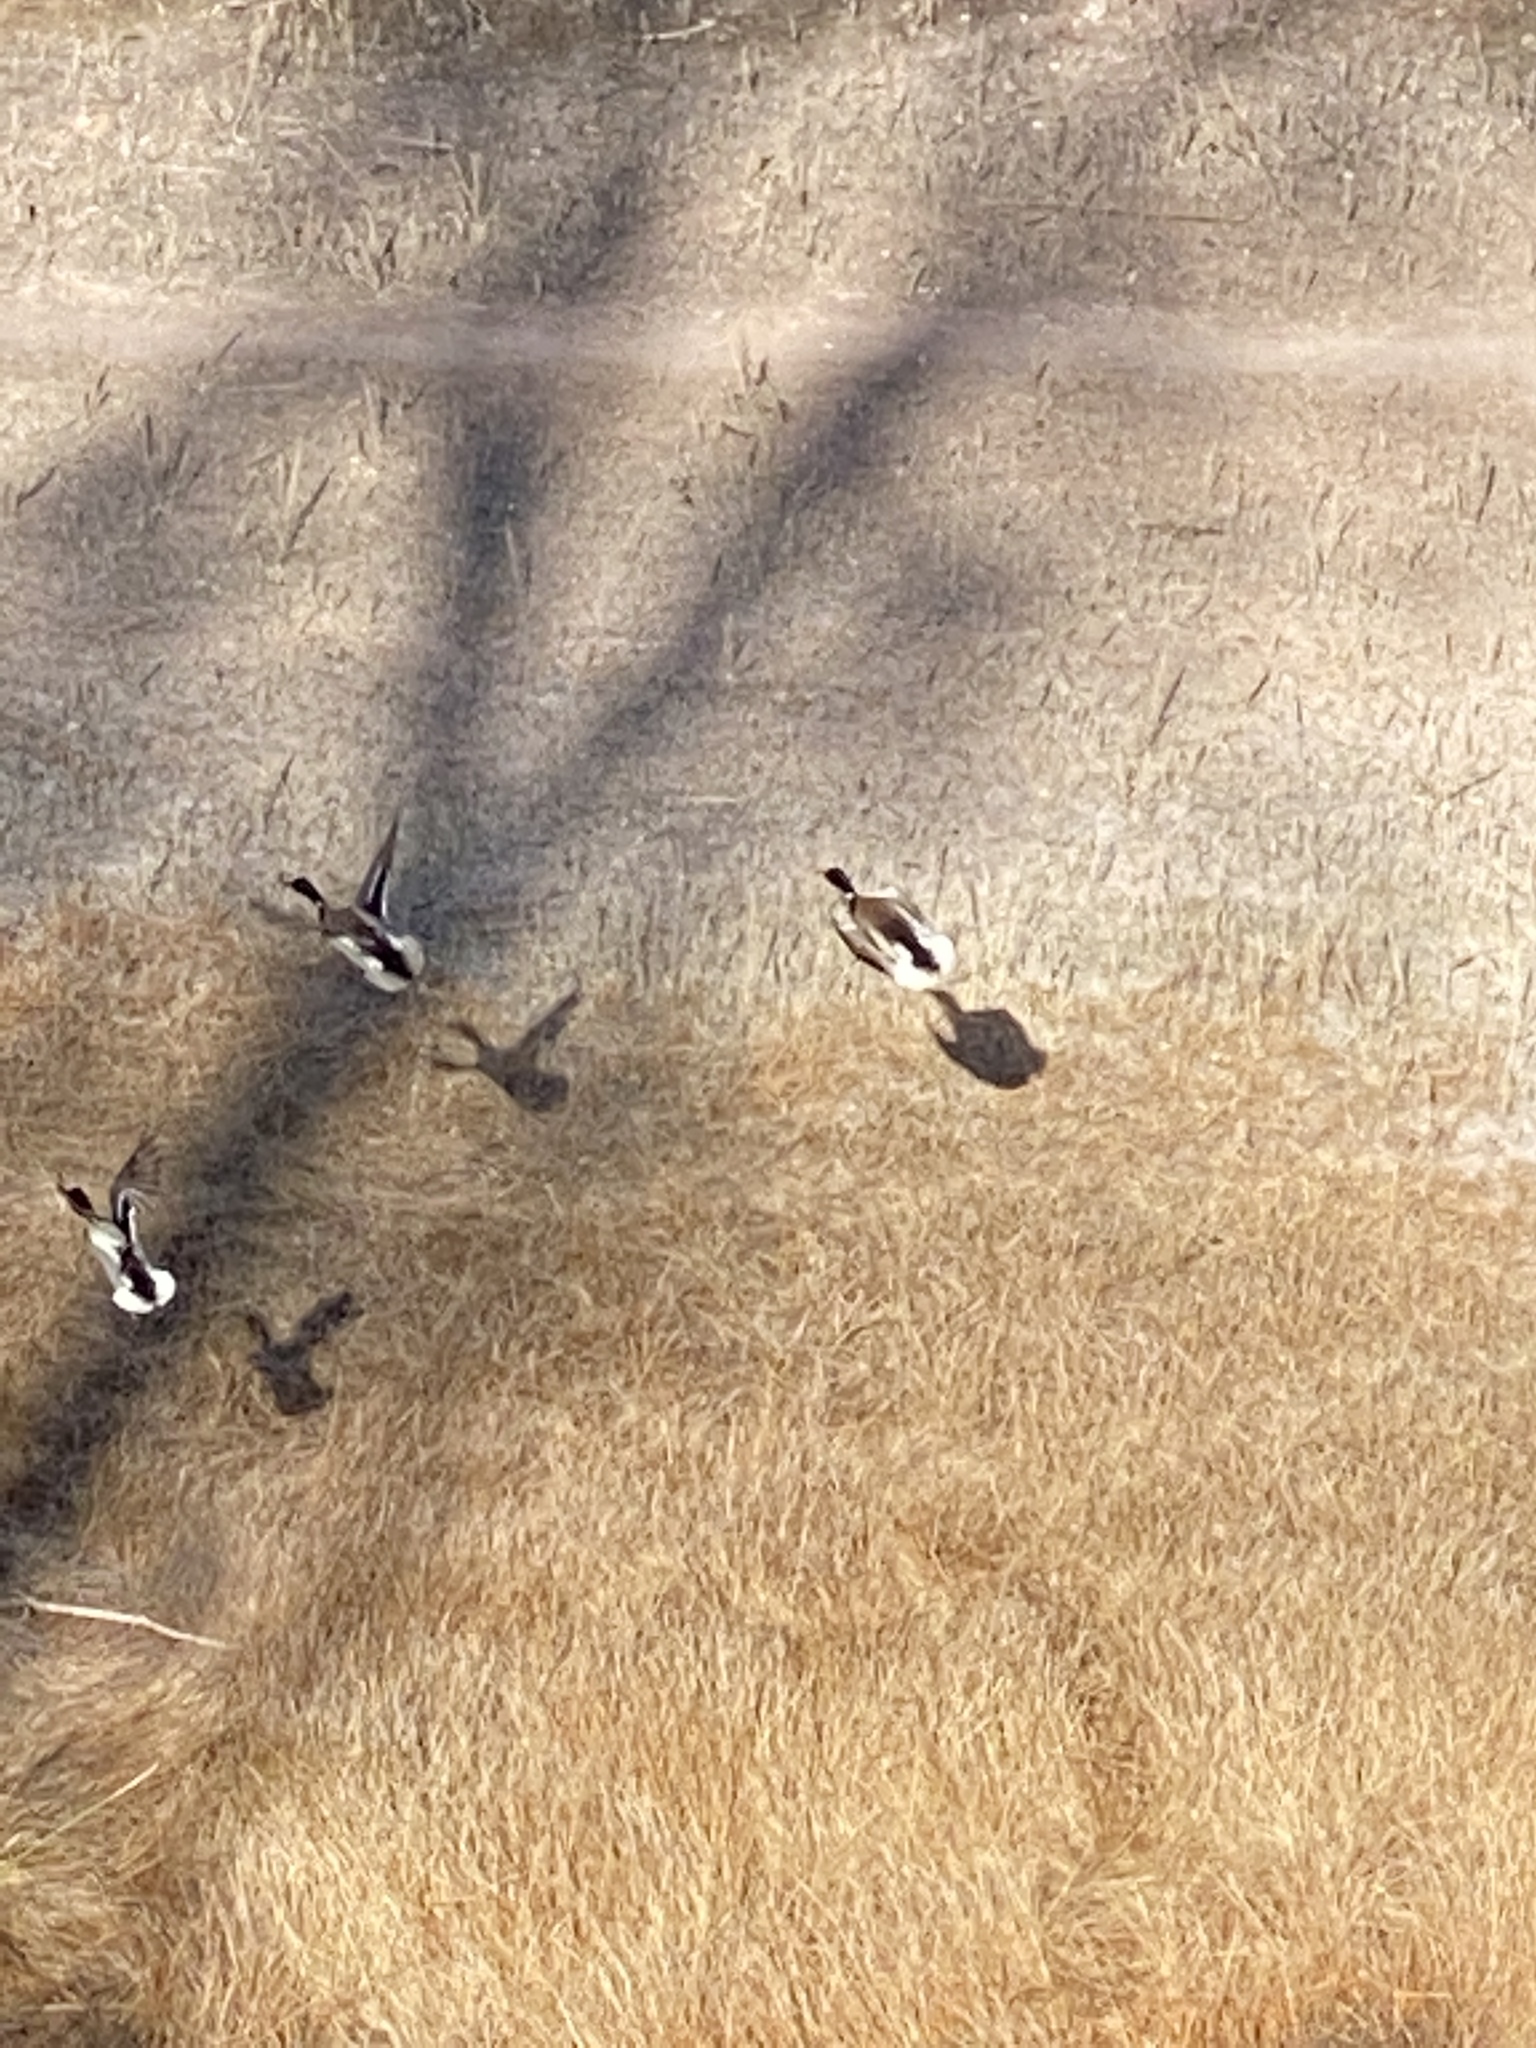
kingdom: Animalia
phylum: Chordata
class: Aves
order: Anseriformes
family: Anatidae
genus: Anas
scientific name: Anas platyrhynchos
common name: Mallard
